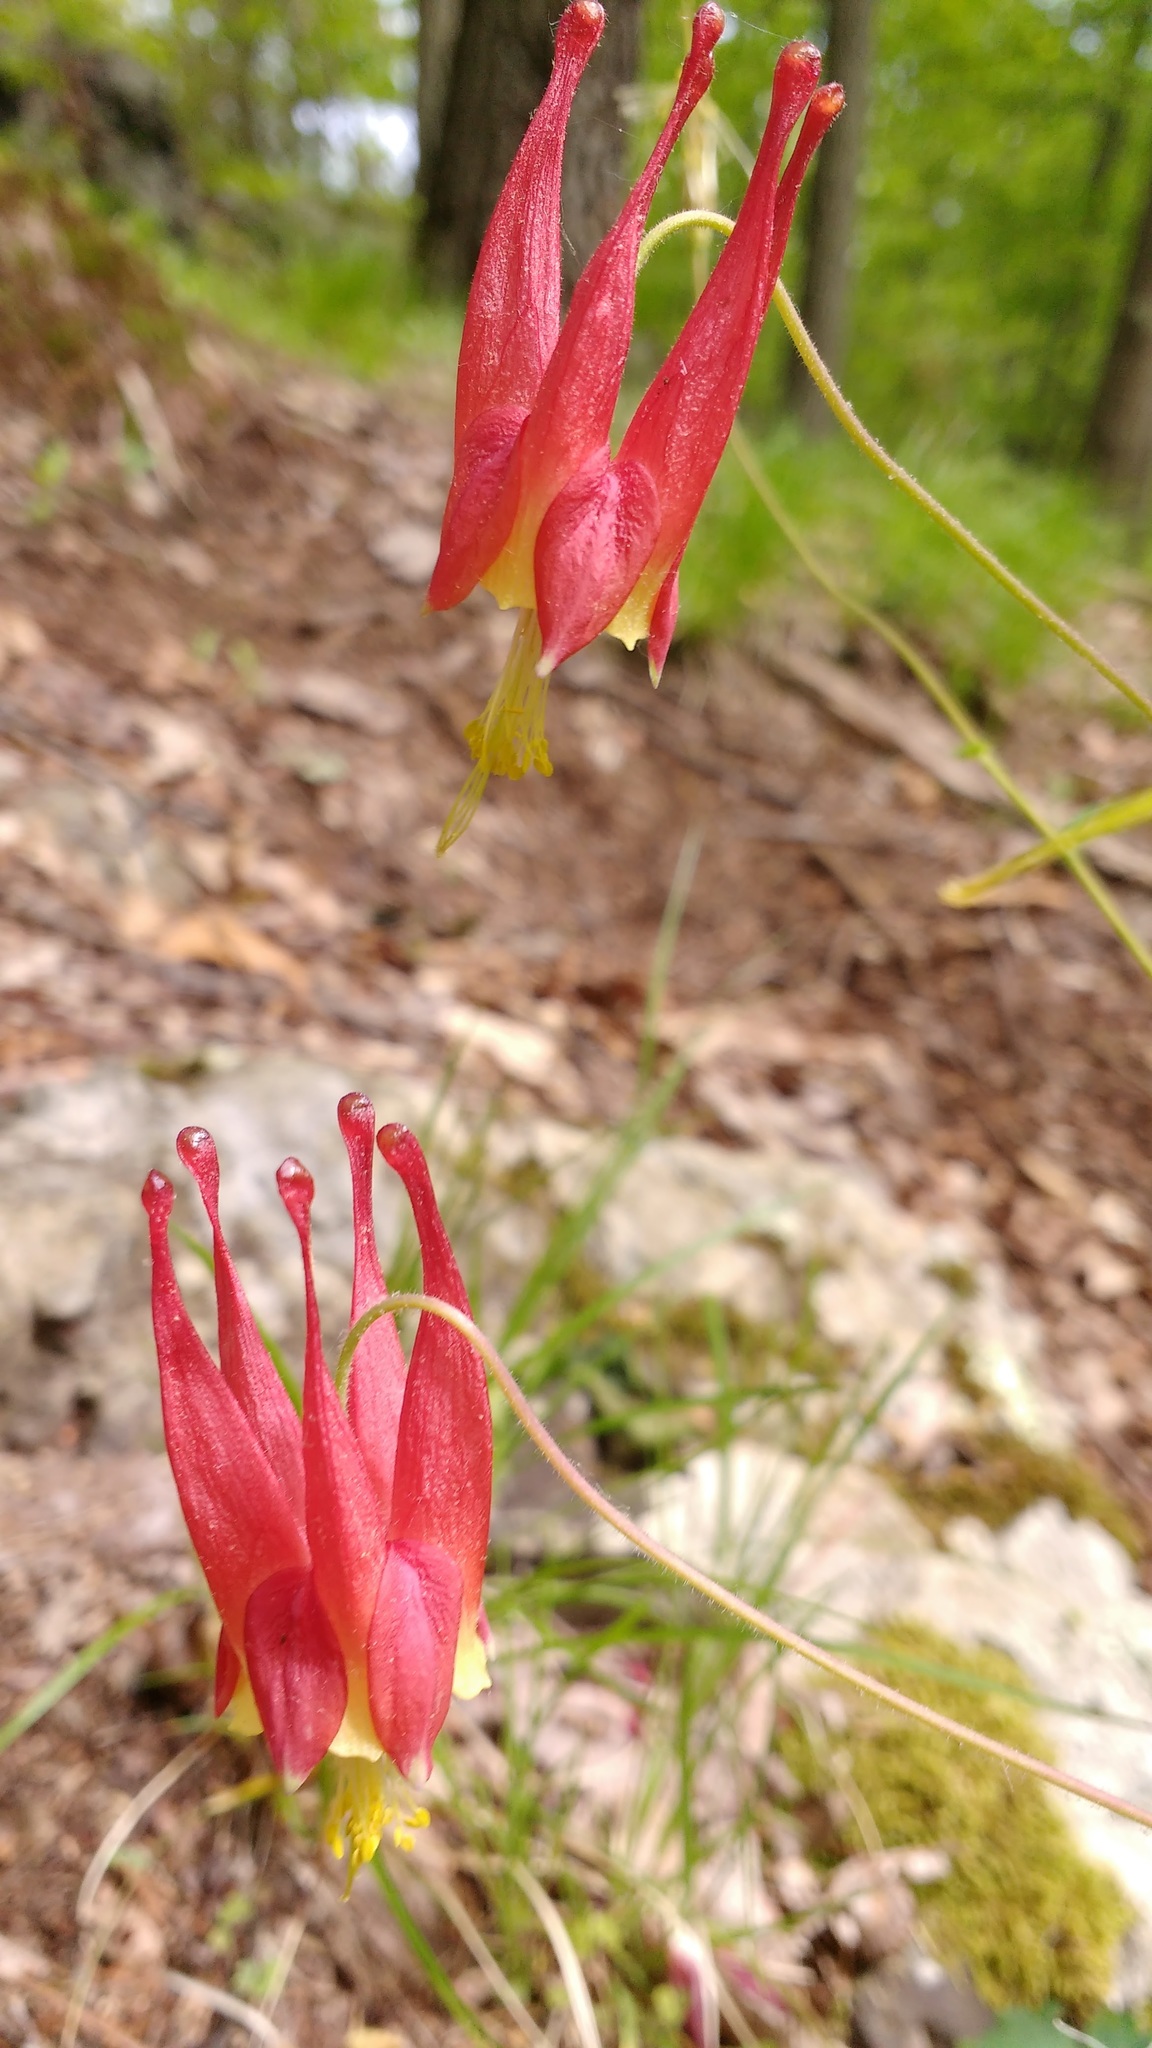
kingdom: Plantae
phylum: Tracheophyta
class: Magnoliopsida
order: Ranunculales
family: Ranunculaceae
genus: Aquilegia
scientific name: Aquilegia canadensis
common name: American columbine
